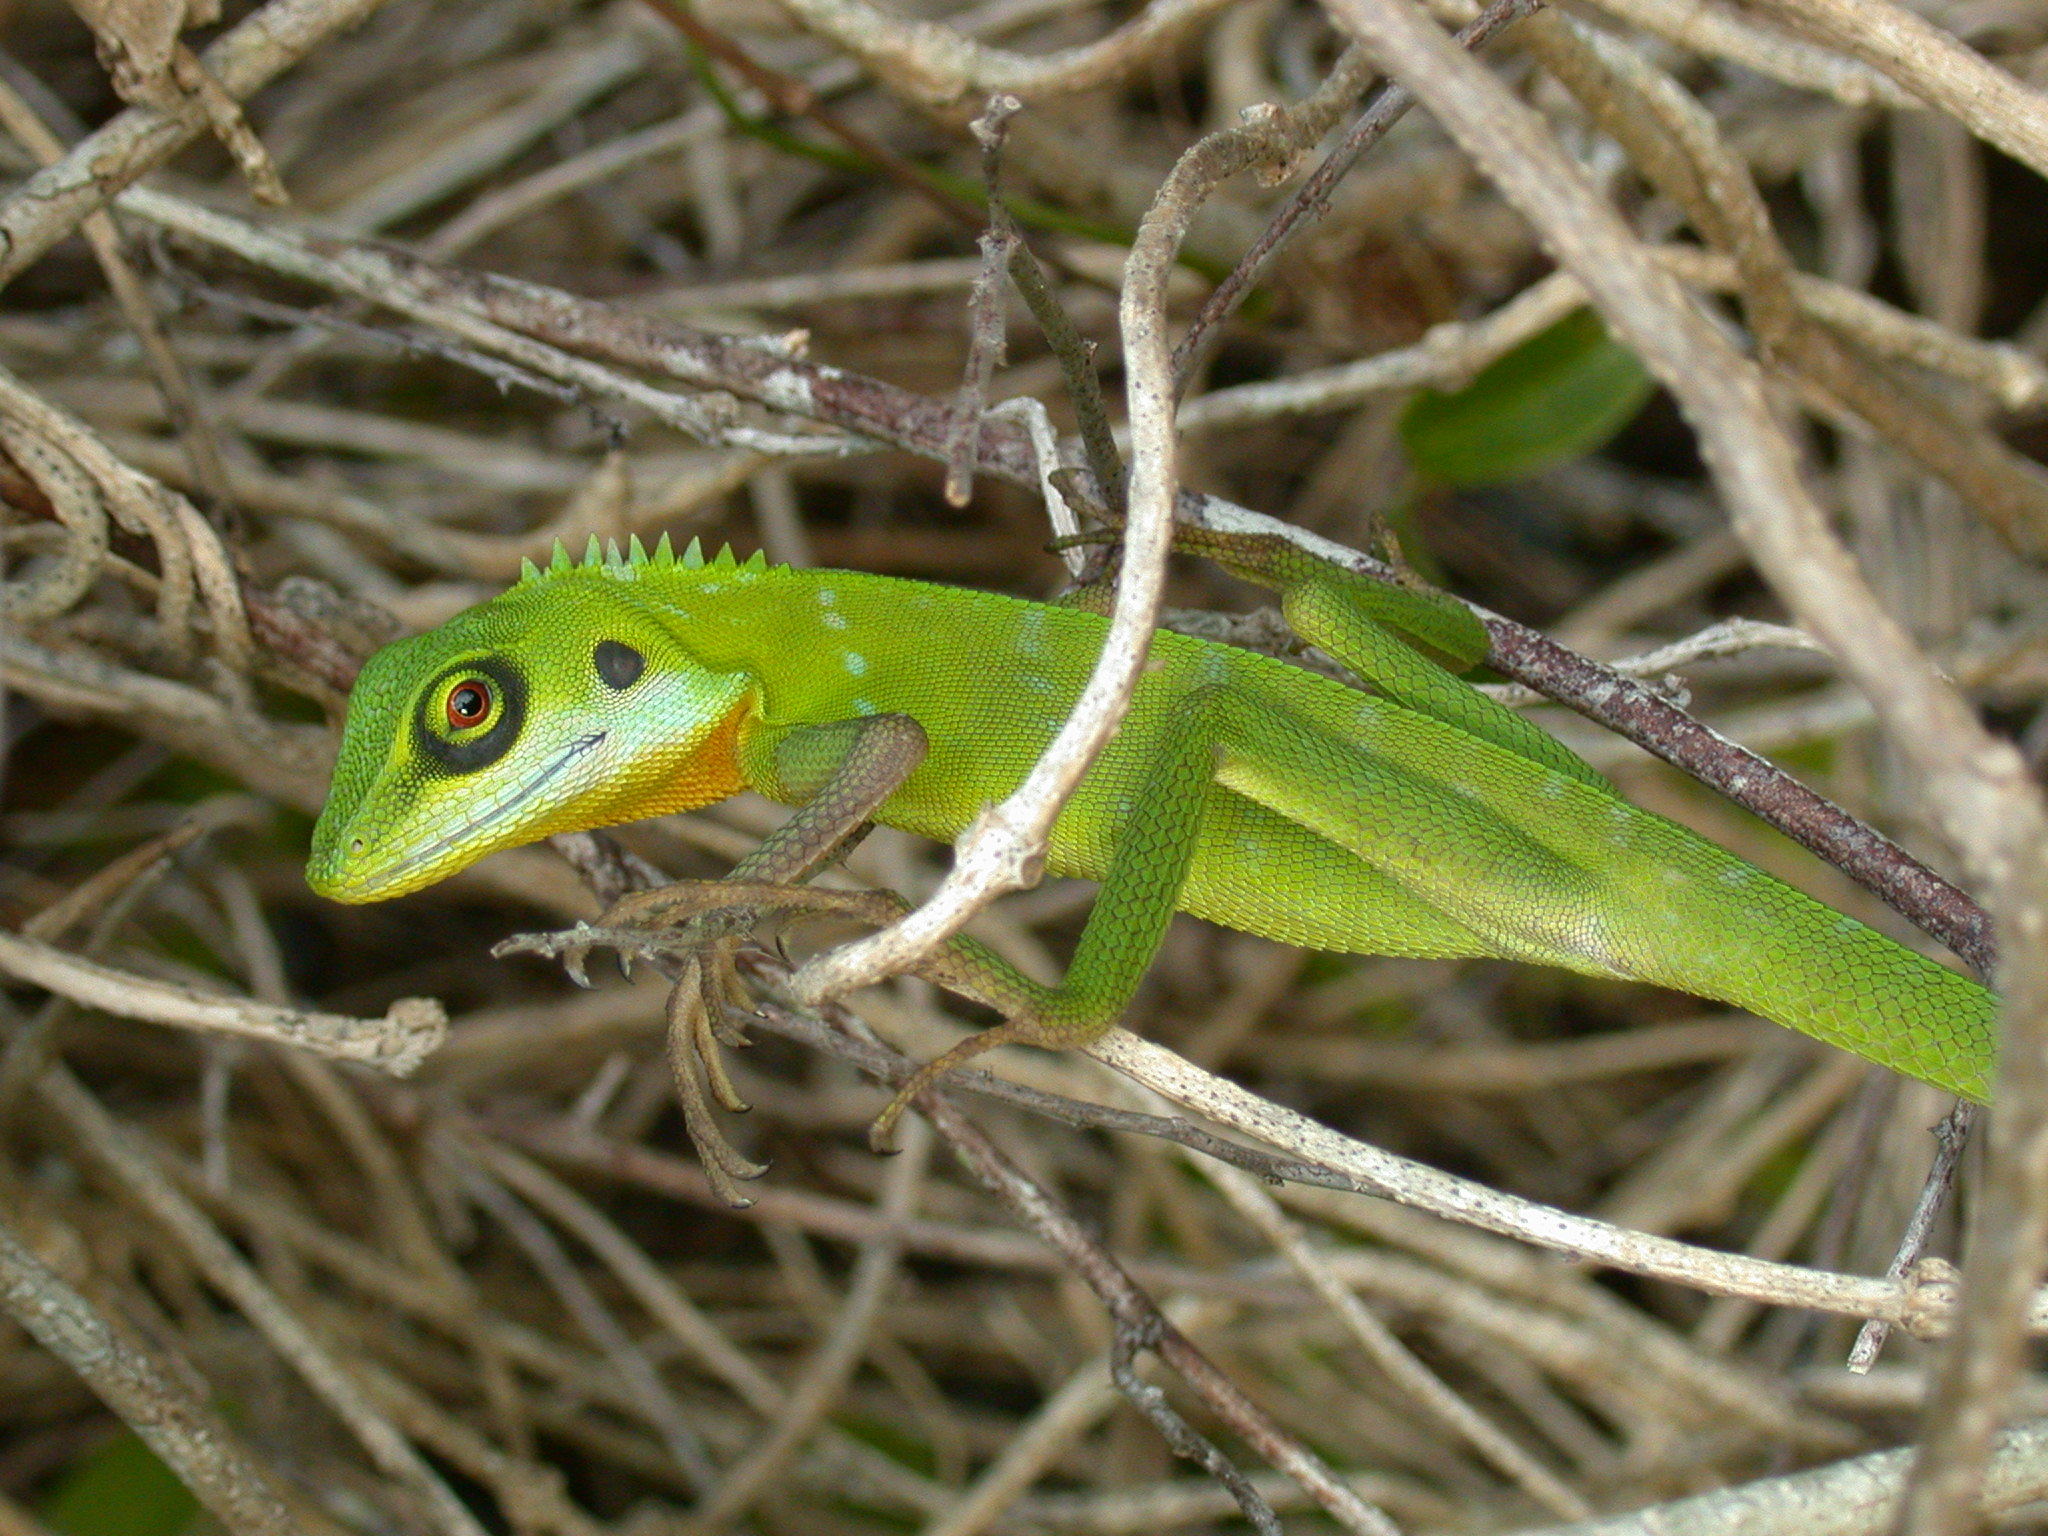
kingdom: Animalia
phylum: Chordata
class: Squamata
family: Agamidae
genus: Bronchocela
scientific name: Bronchocela cristatella
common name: Green crested lizard
